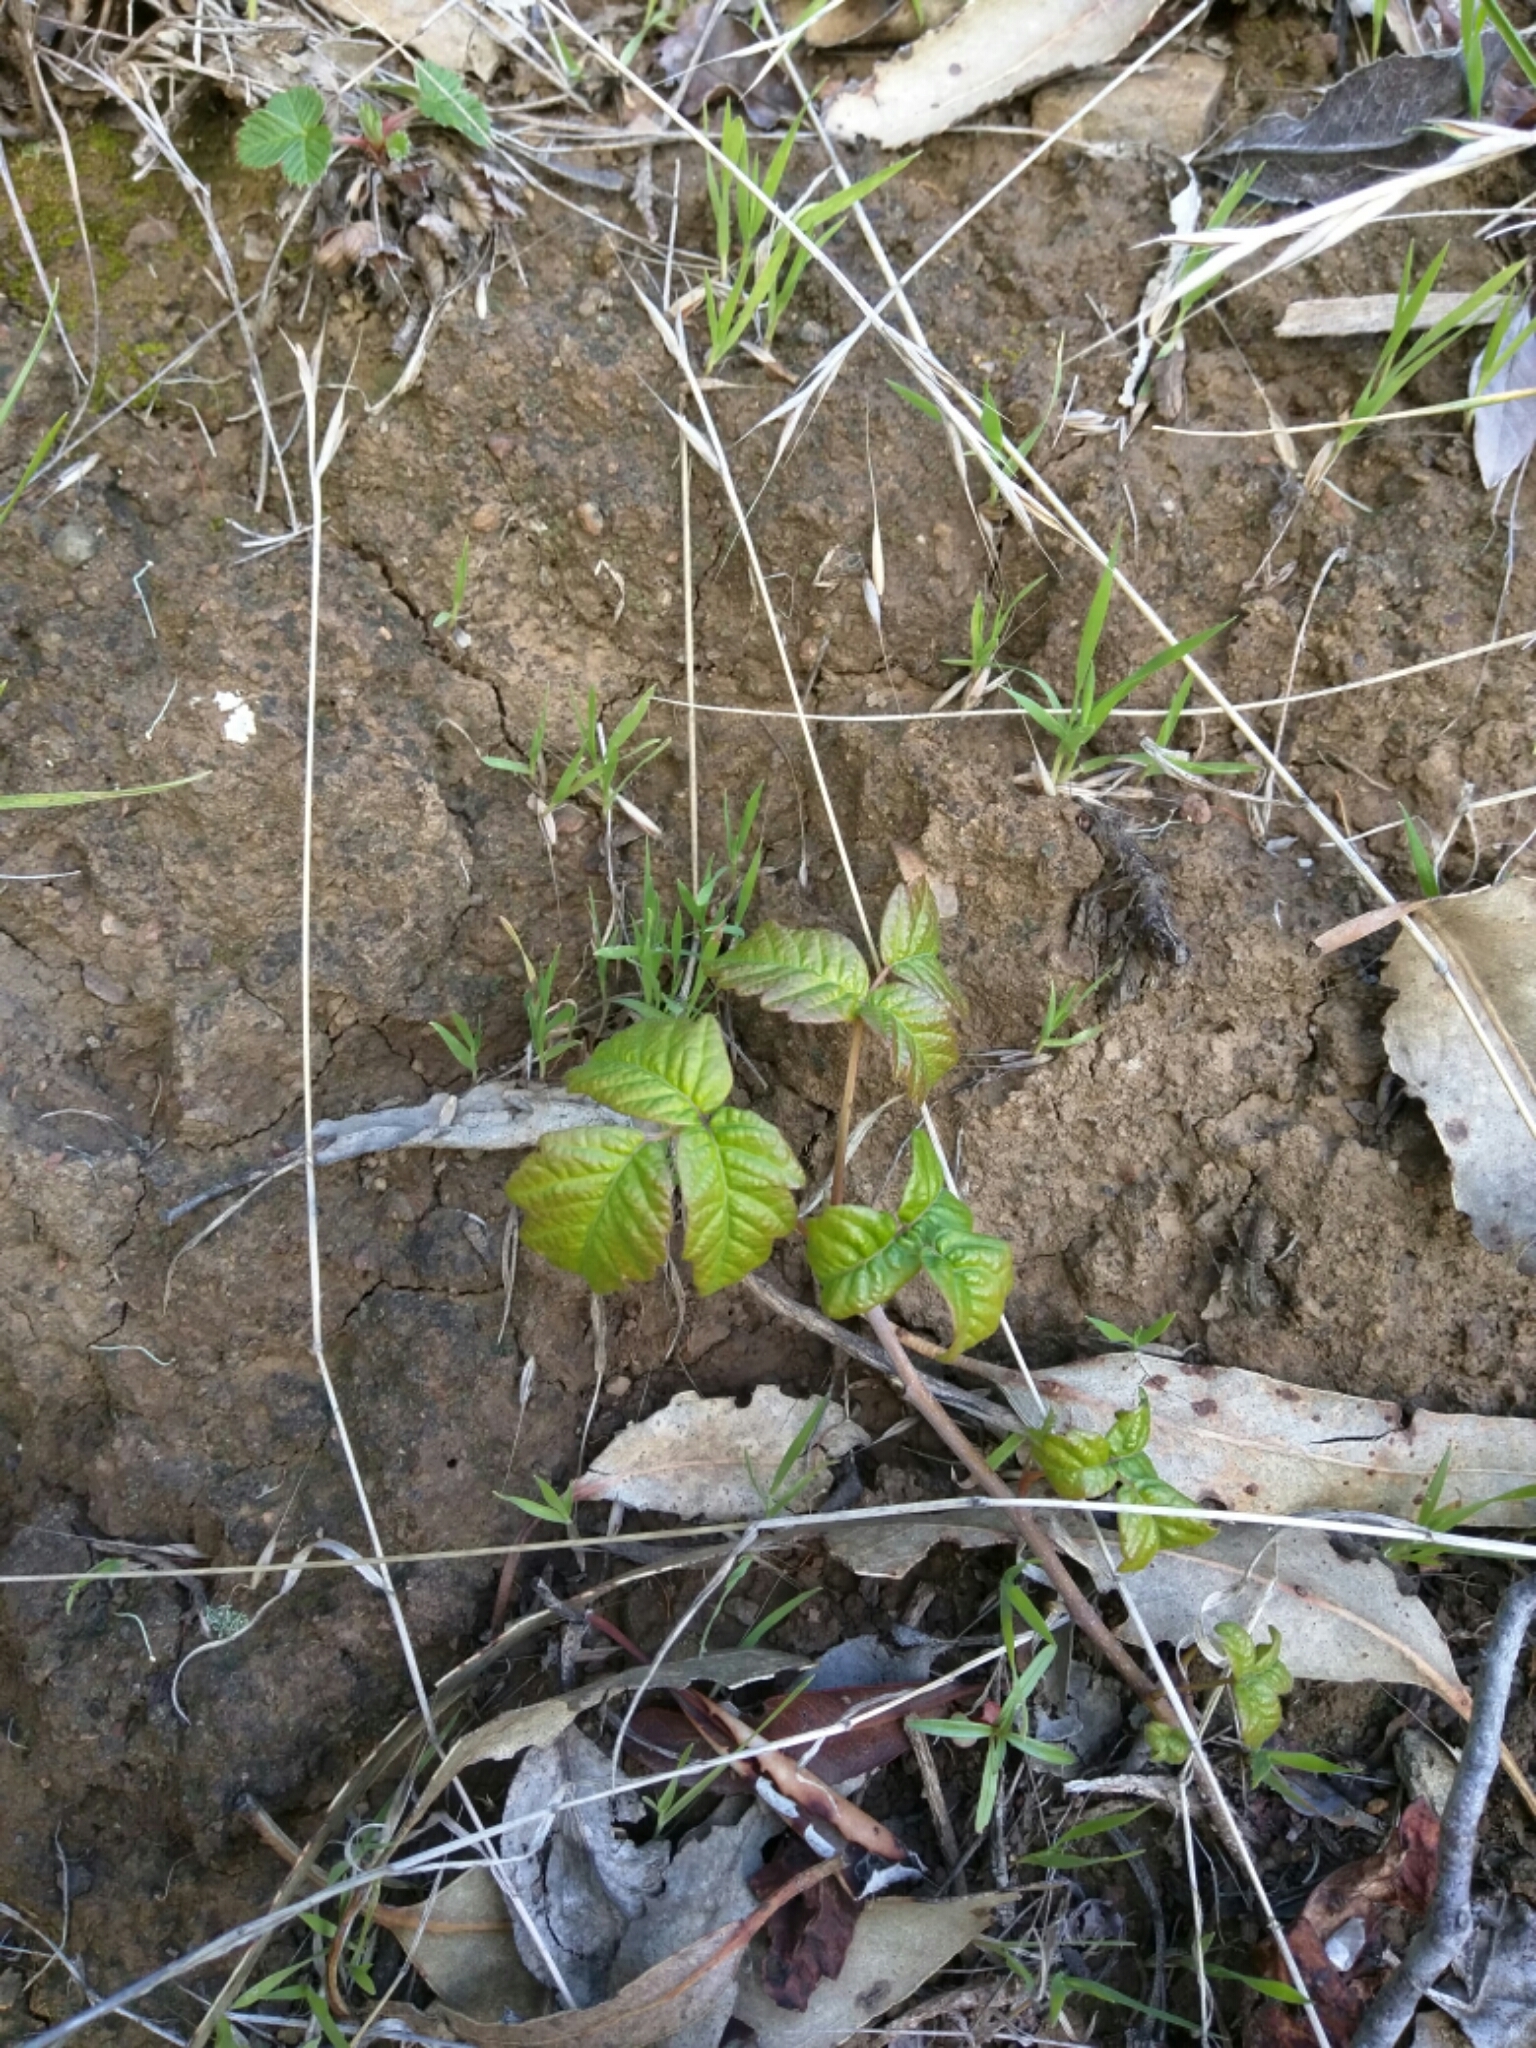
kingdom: Plantae
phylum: Tracheophyta
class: Magnoliopsida
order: Sapindales
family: Anacardiaceae
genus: Toxicodendron
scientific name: Toxicodendron diversilobum
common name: Pacific poison-oak
